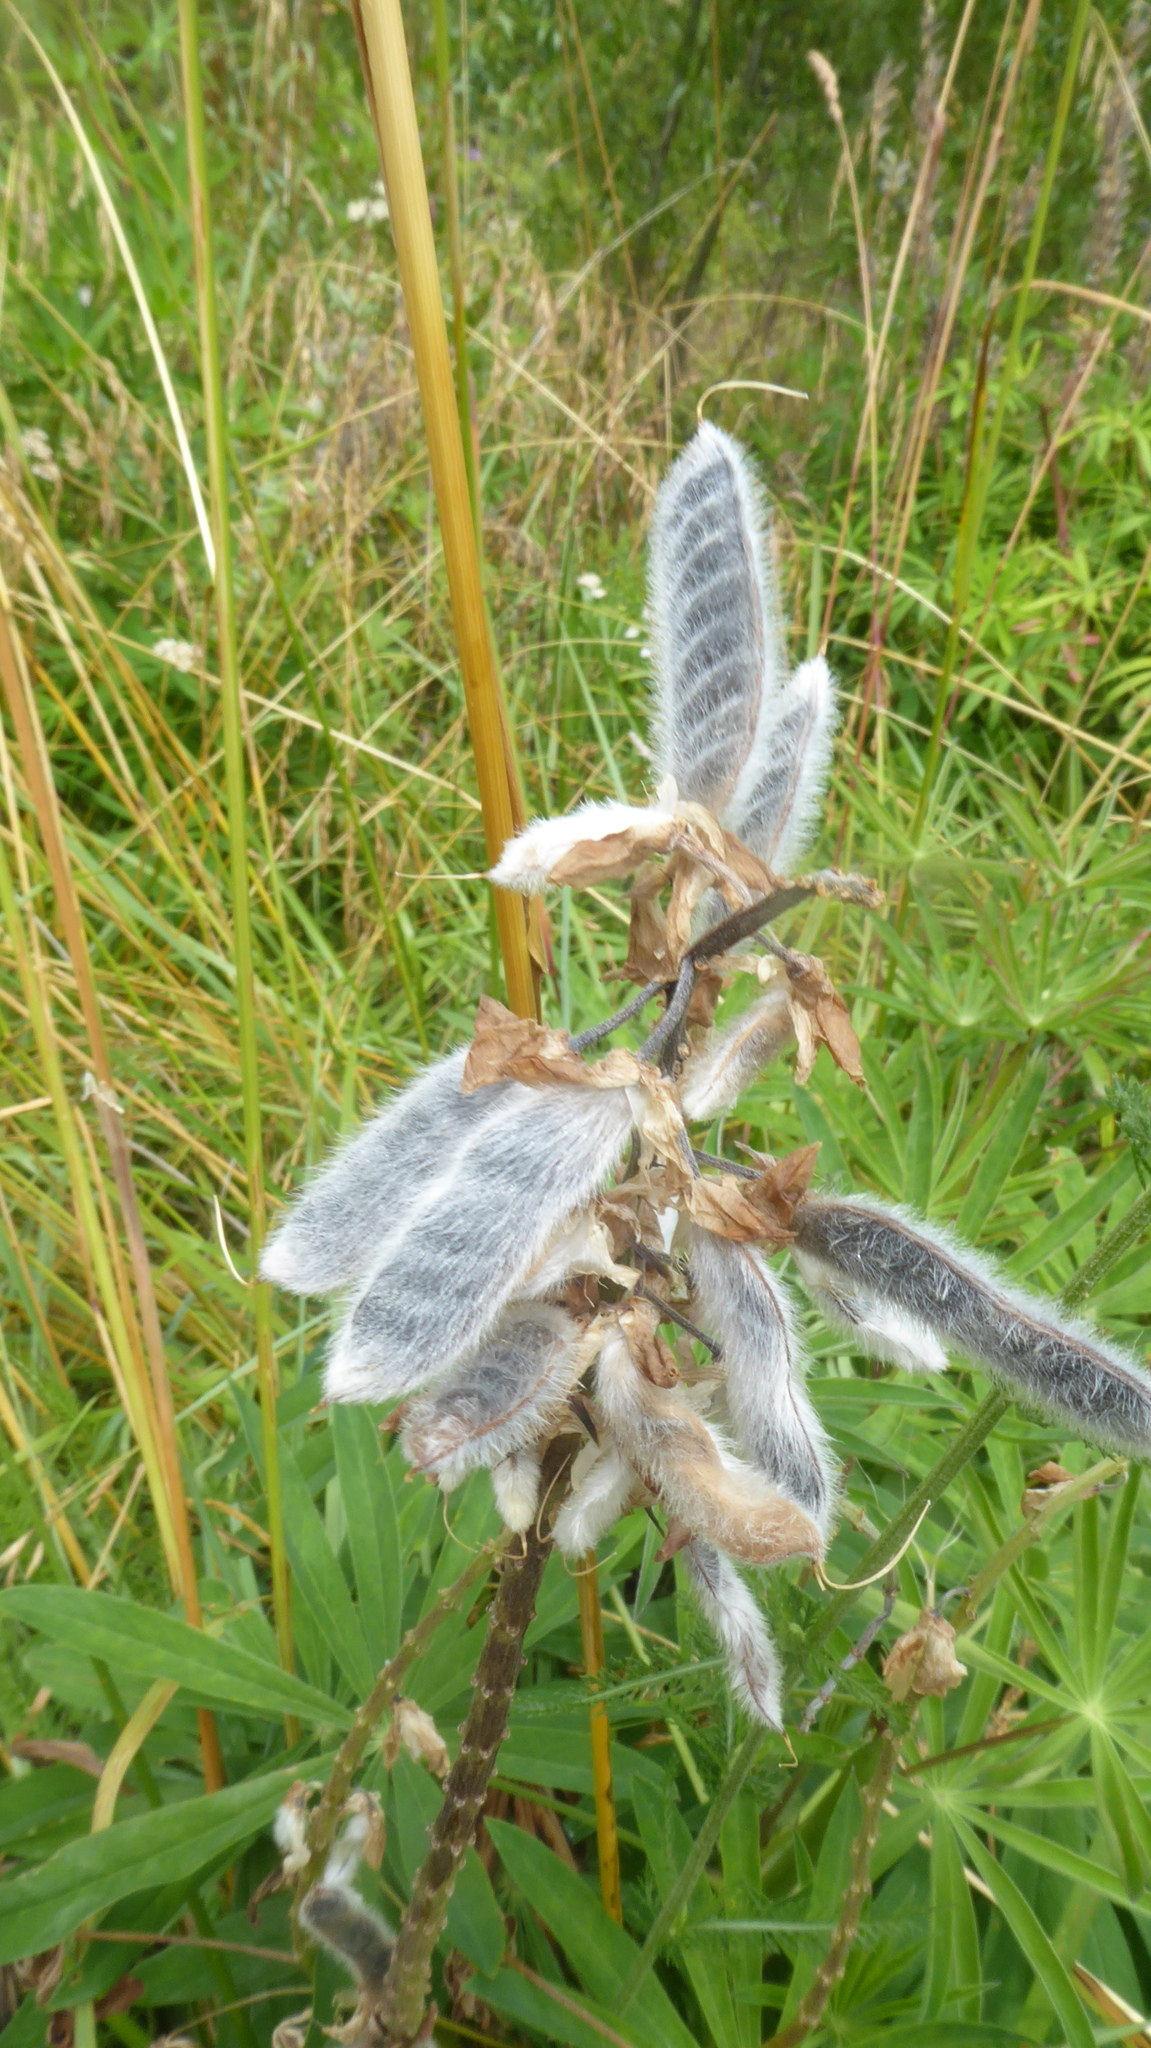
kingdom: Plantae
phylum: Tracheophyta
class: Magnoliopsida
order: Fabales
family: Fabaceae
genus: Lupinus
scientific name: Lupinus polyphyllus
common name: Garden lupin
